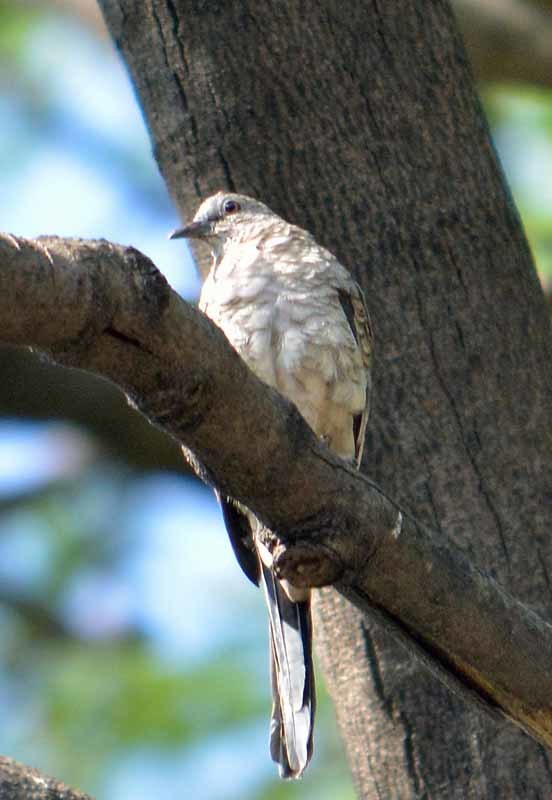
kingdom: Animalia
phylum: Chordata
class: Aves
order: Columbiformes
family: Columbidae
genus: Columbina
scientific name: Columbina inca
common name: Inca dove
